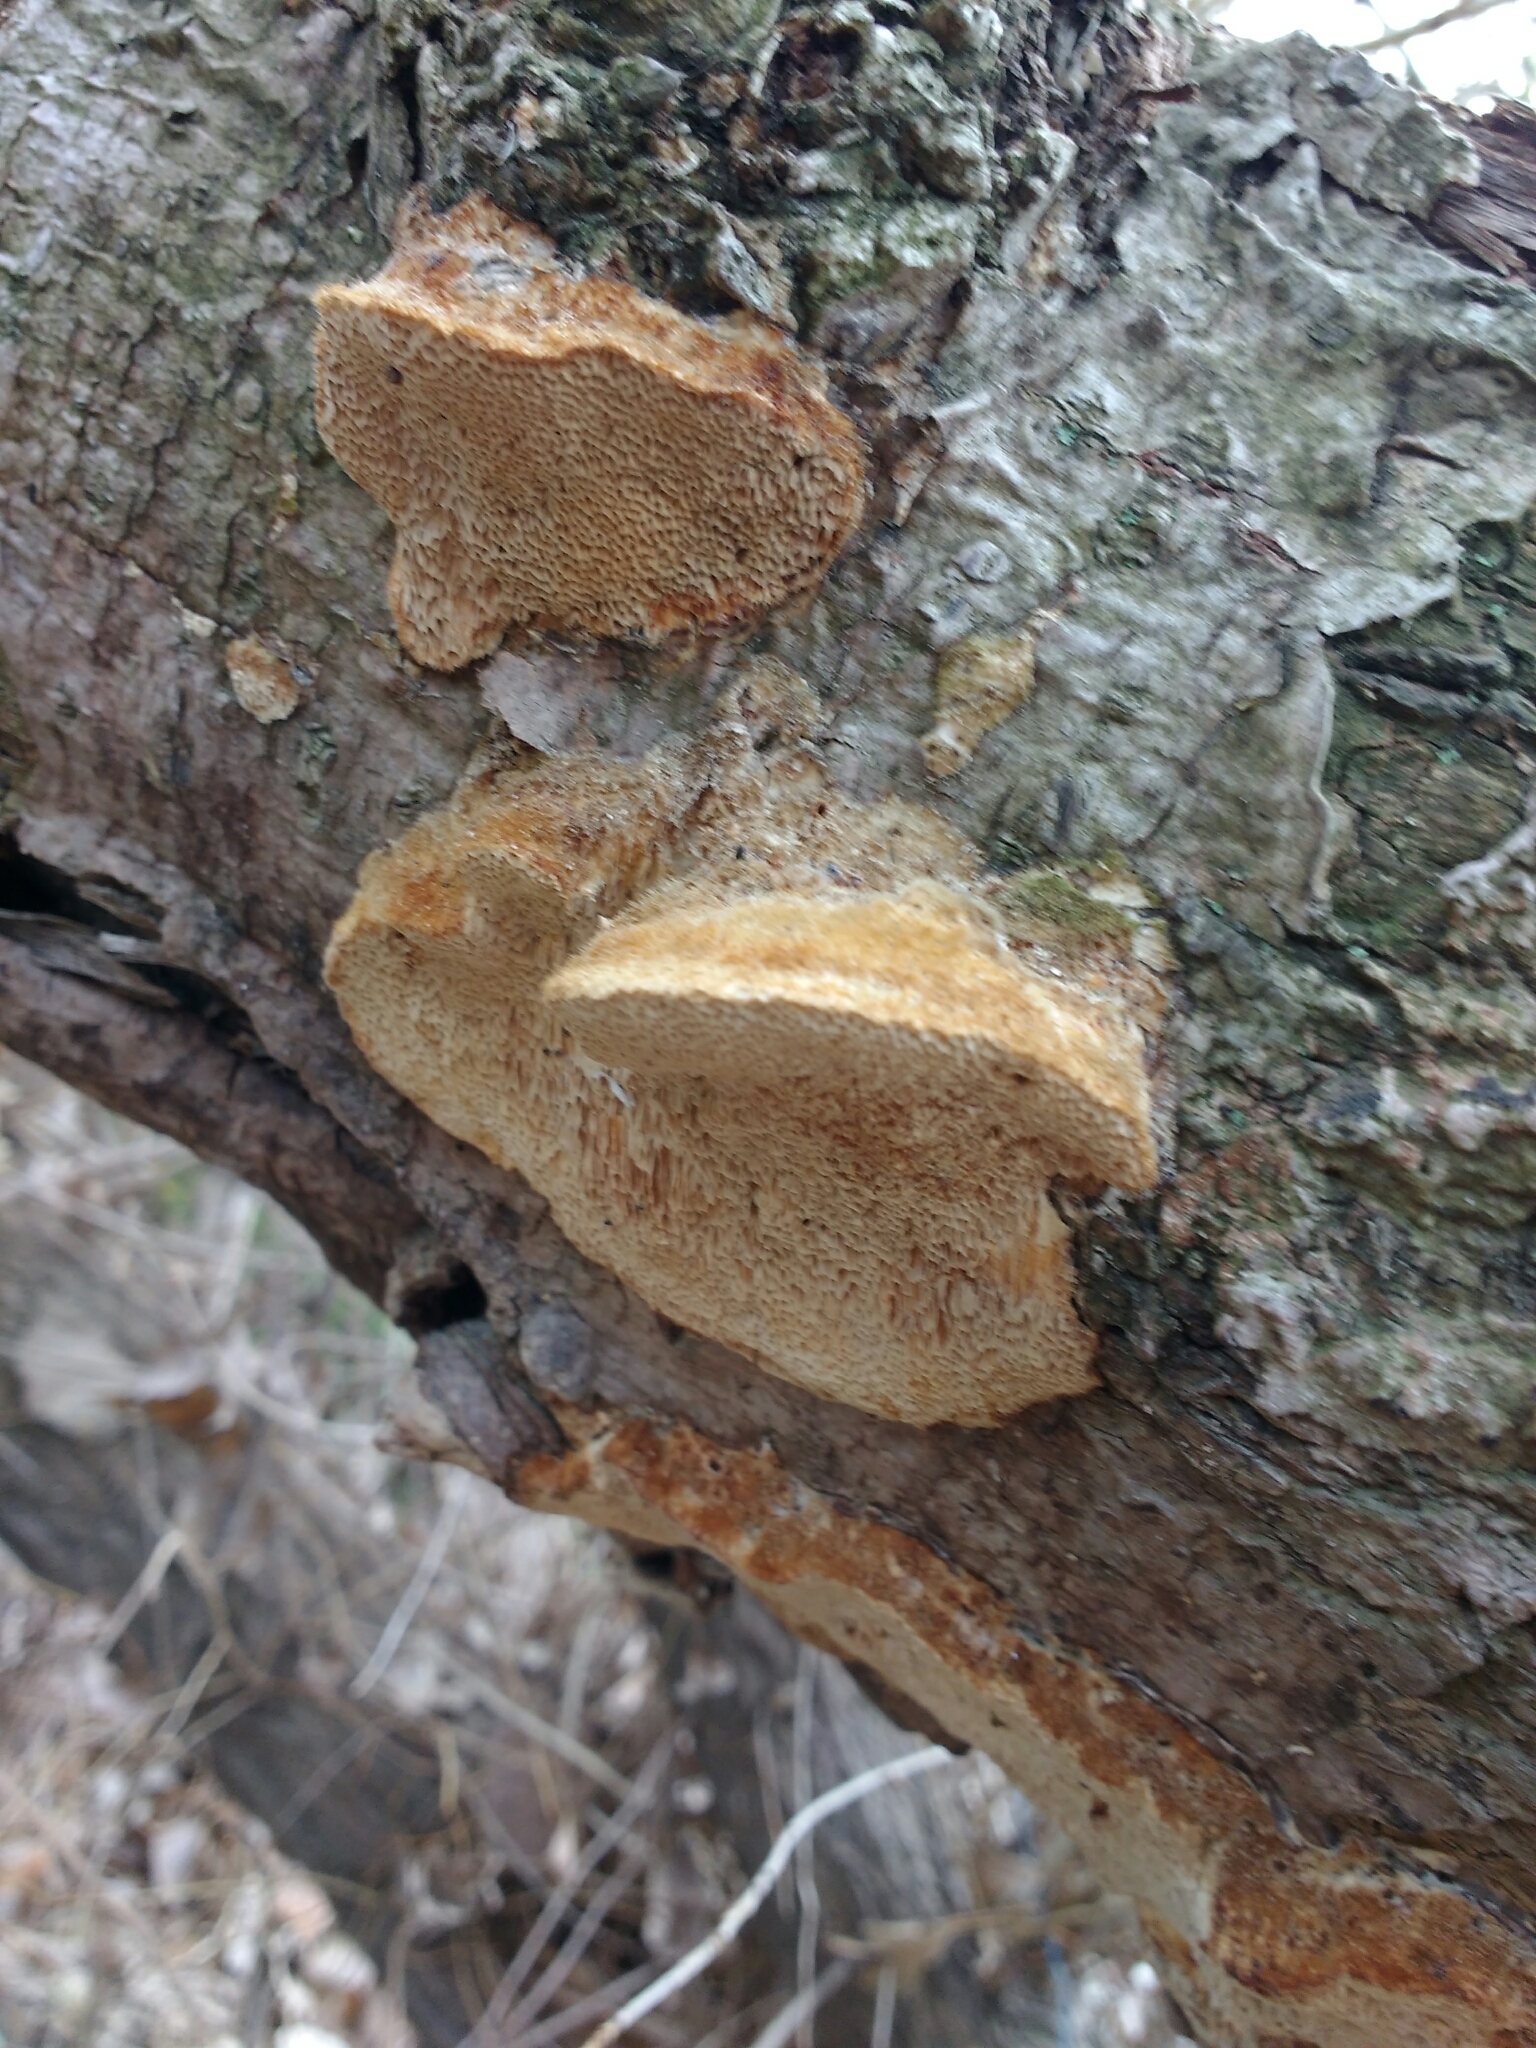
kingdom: Fungi
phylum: Basidiomycota
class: Agaricomycetes
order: Polyporales
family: Polyporaceae
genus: Trametes
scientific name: Trametes trogii
